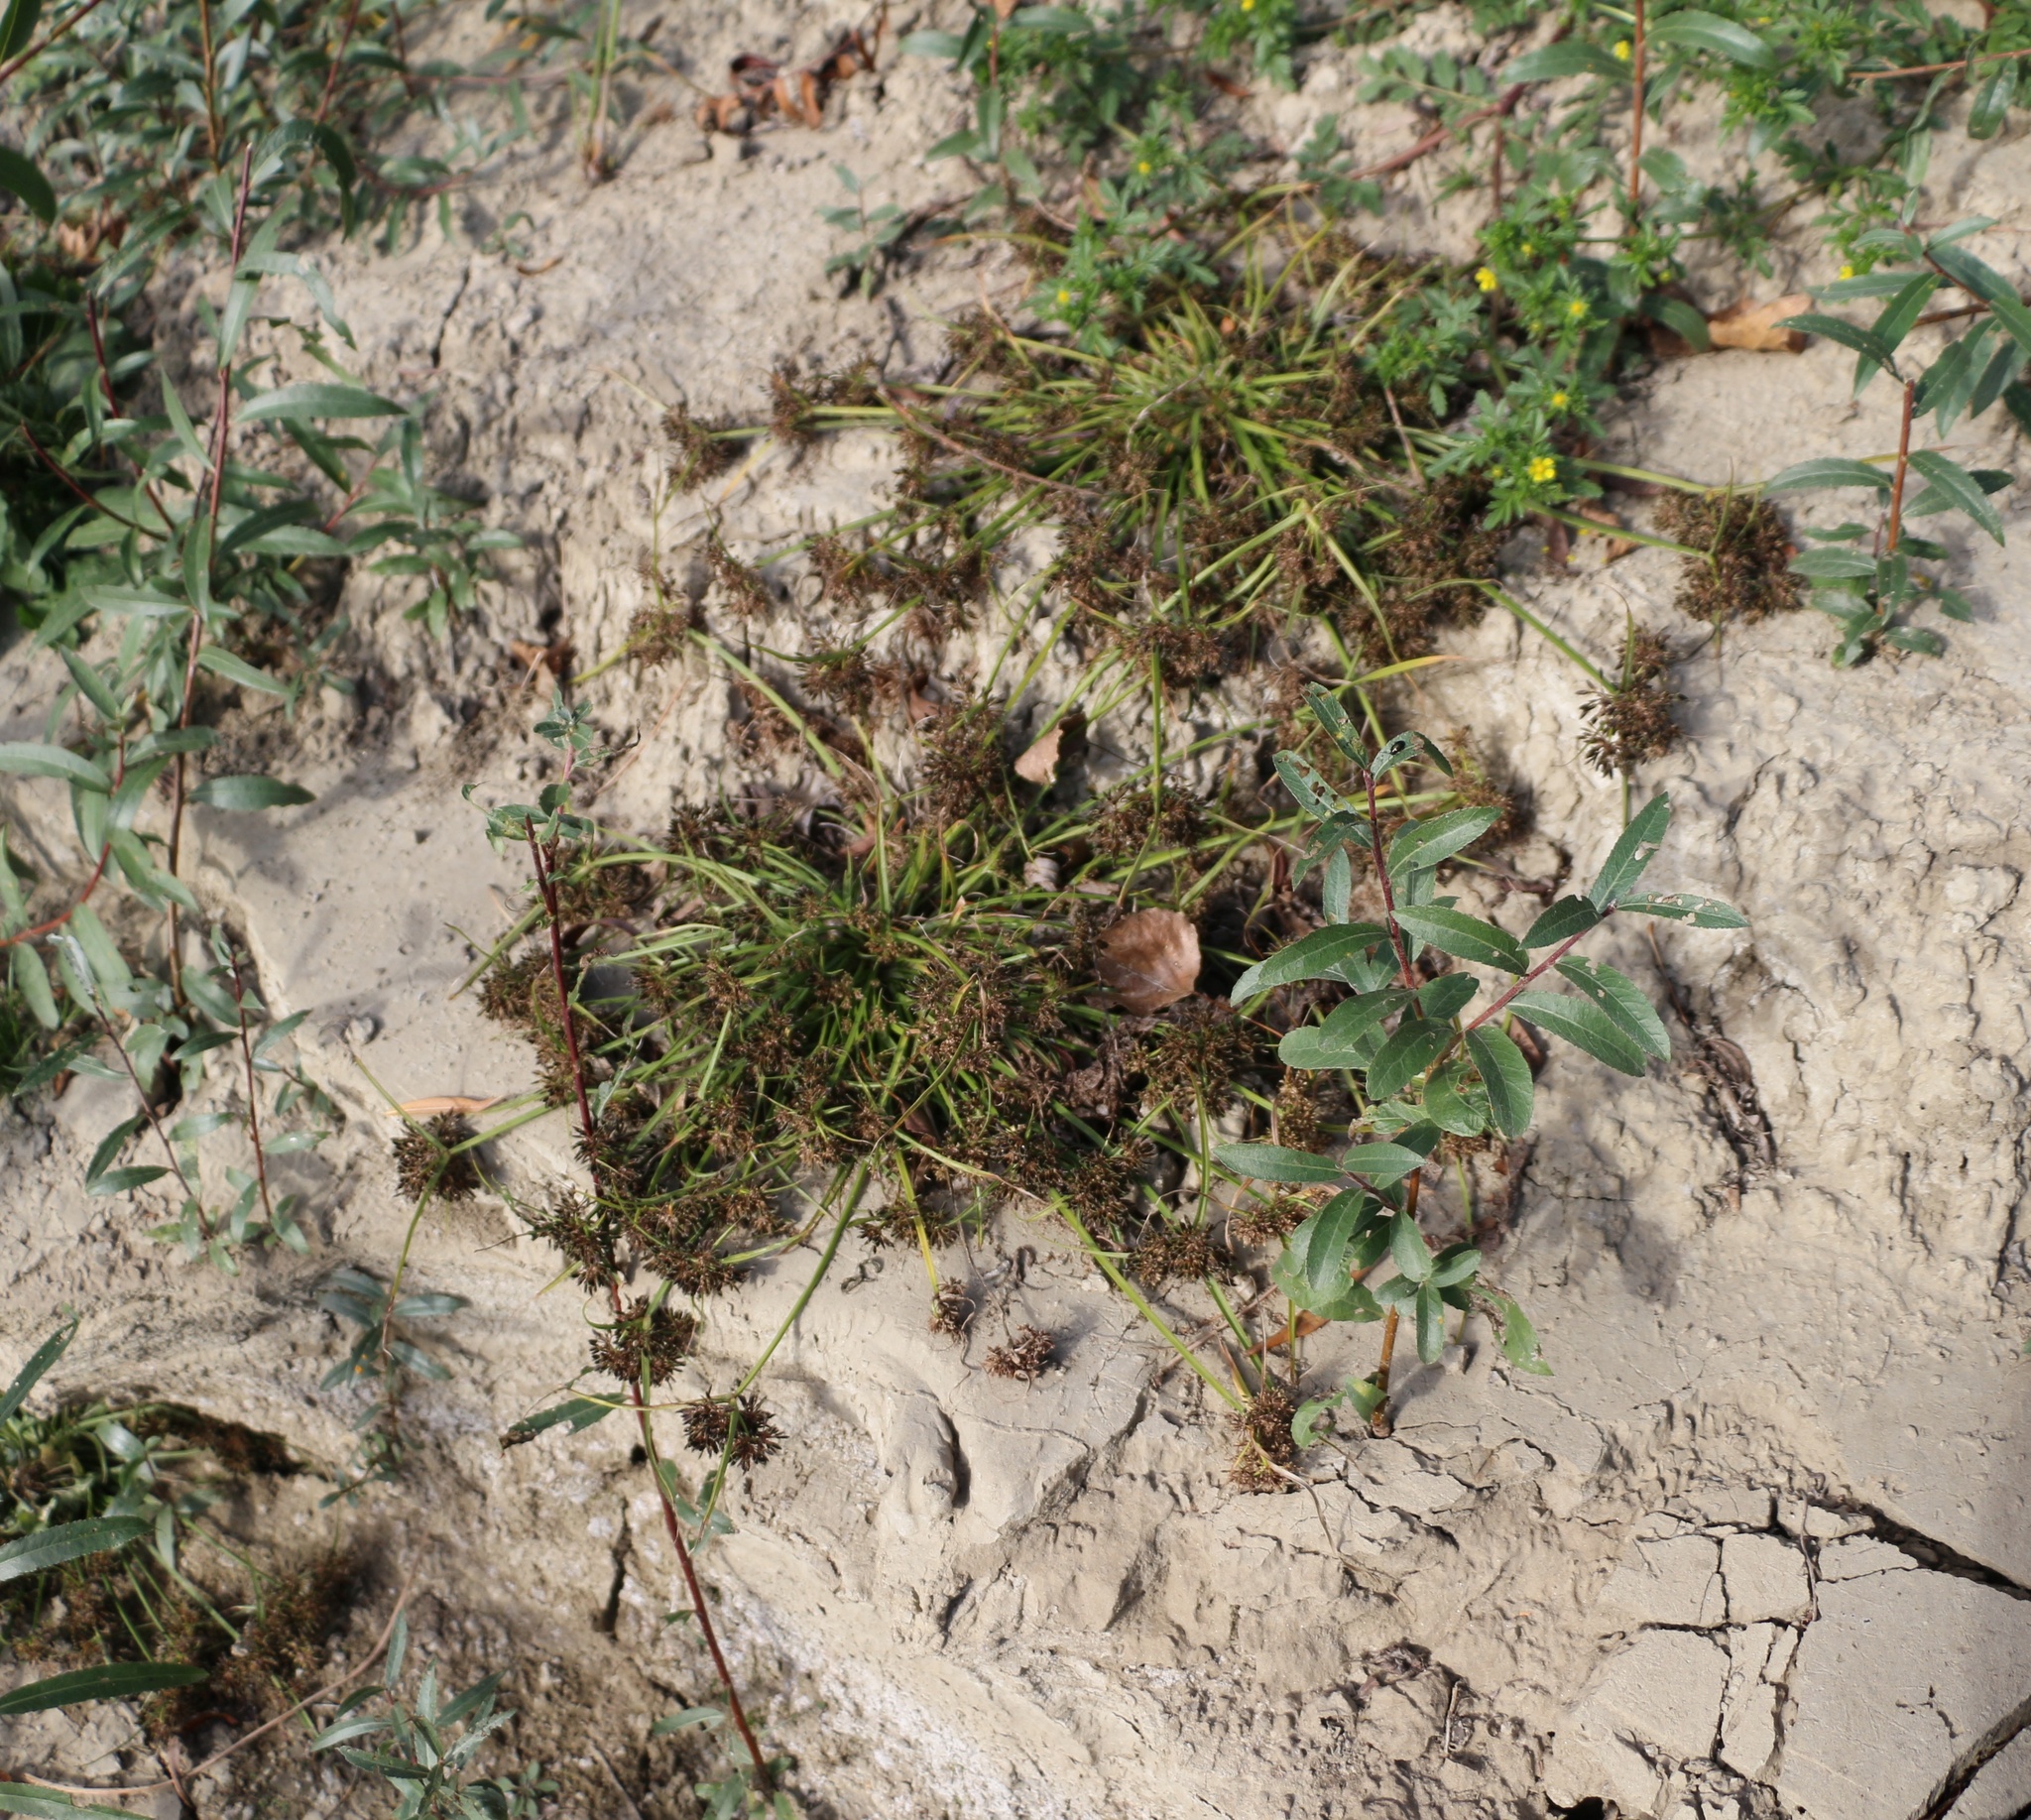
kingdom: Plantae
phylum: Tracheophyta
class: Liliopsida
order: Poales
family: Cyperaceae
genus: Cyperus
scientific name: Cyperus fuscus
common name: Brown galingale
